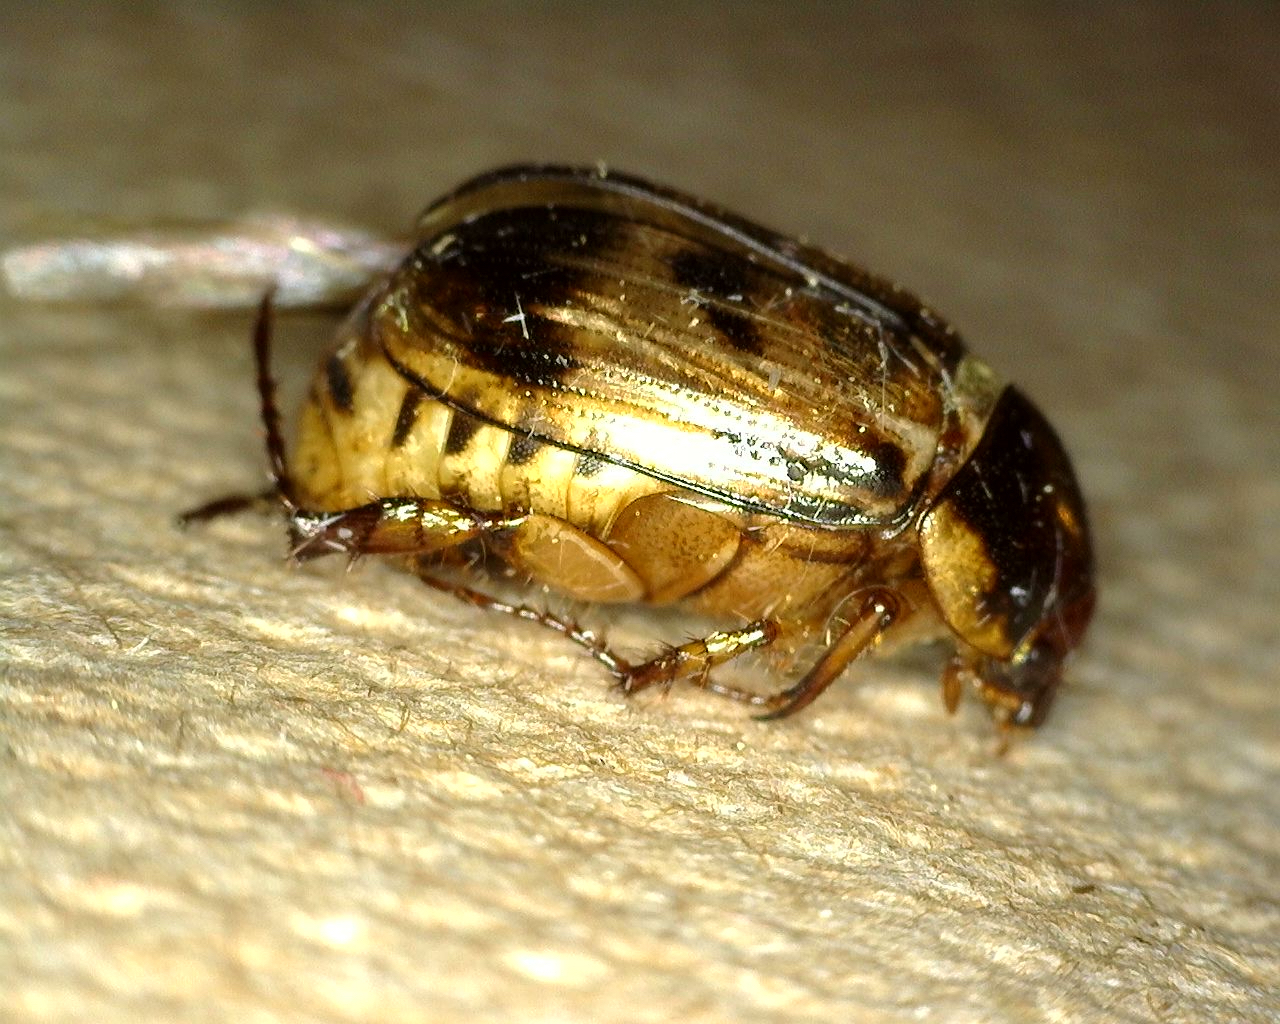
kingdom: Animalia
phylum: Arthropoda
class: Insecta
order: Coleoptera
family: Scarabaeidae
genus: Paranomala
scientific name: Paranomala undulata
